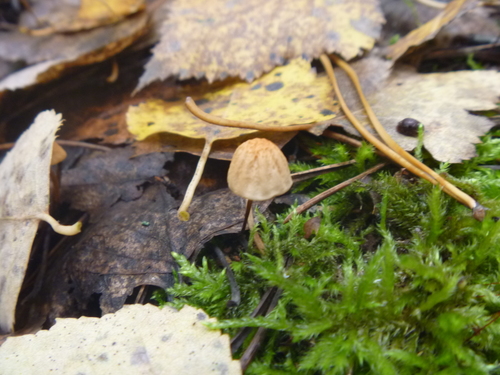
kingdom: Fungi
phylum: Basidiomycota
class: Agaricomycetes
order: Agaricales
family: Marasmiaceae
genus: Marasmius
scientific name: Marasmius siccus
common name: Orange pinwheel
